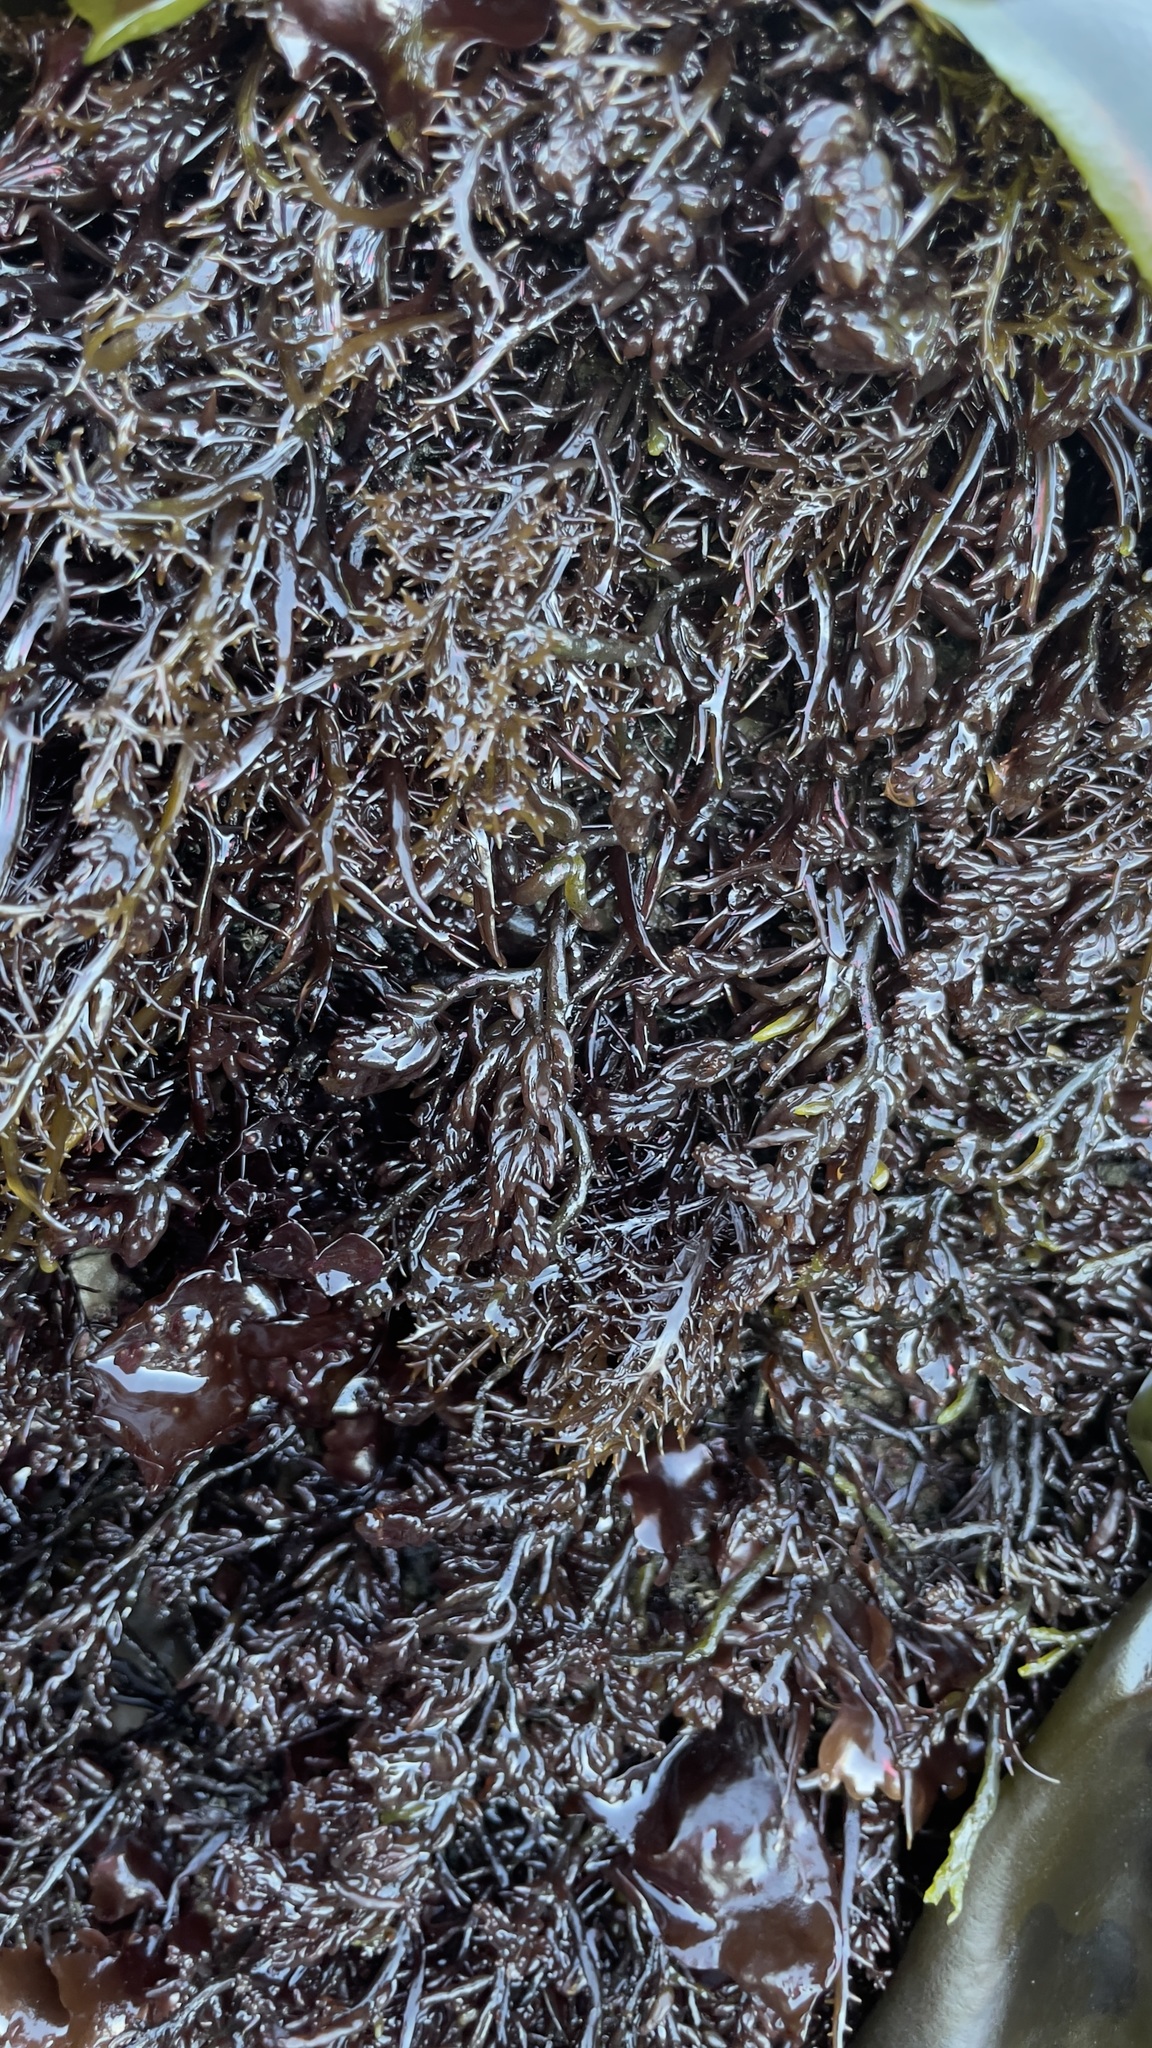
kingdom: Plantae
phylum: Rhodophyta
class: Florideophyceae
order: Gigartinales
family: Gigartinaceae
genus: Chondracanthus
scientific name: Chondracanthus canaliculatus
